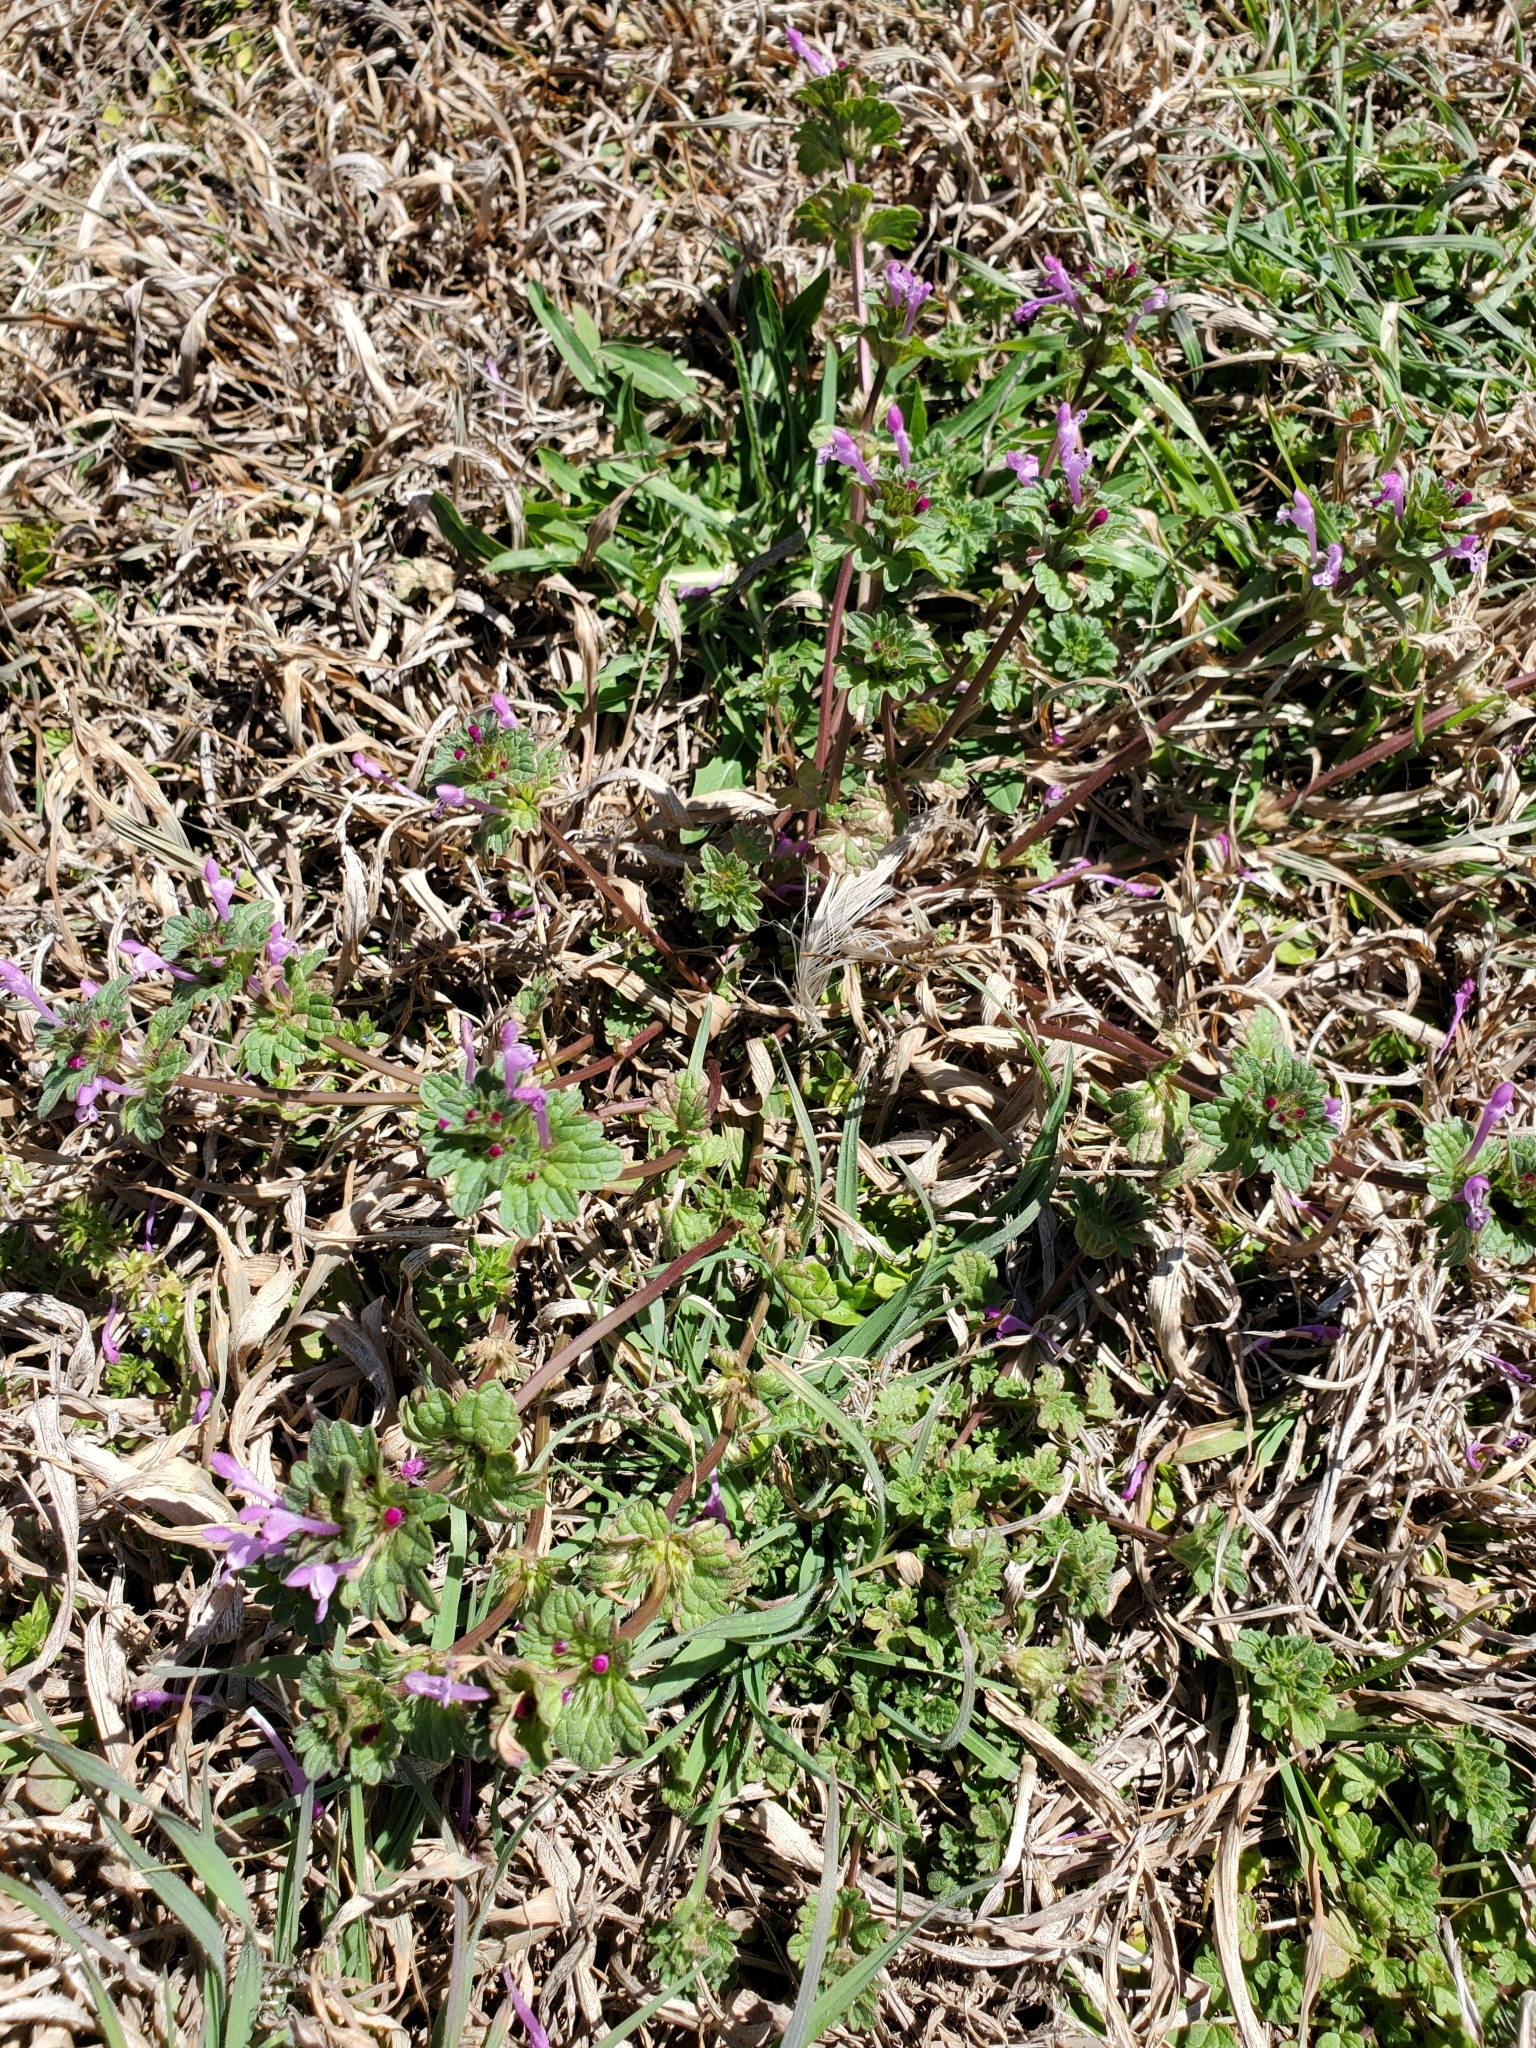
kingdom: Plantae
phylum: Tracheophyta
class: Magnoliopsida
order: Lamiales
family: Lamiaceae
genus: Lamium
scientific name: Lamium amplexicaule
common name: Henbit dead-nettle
